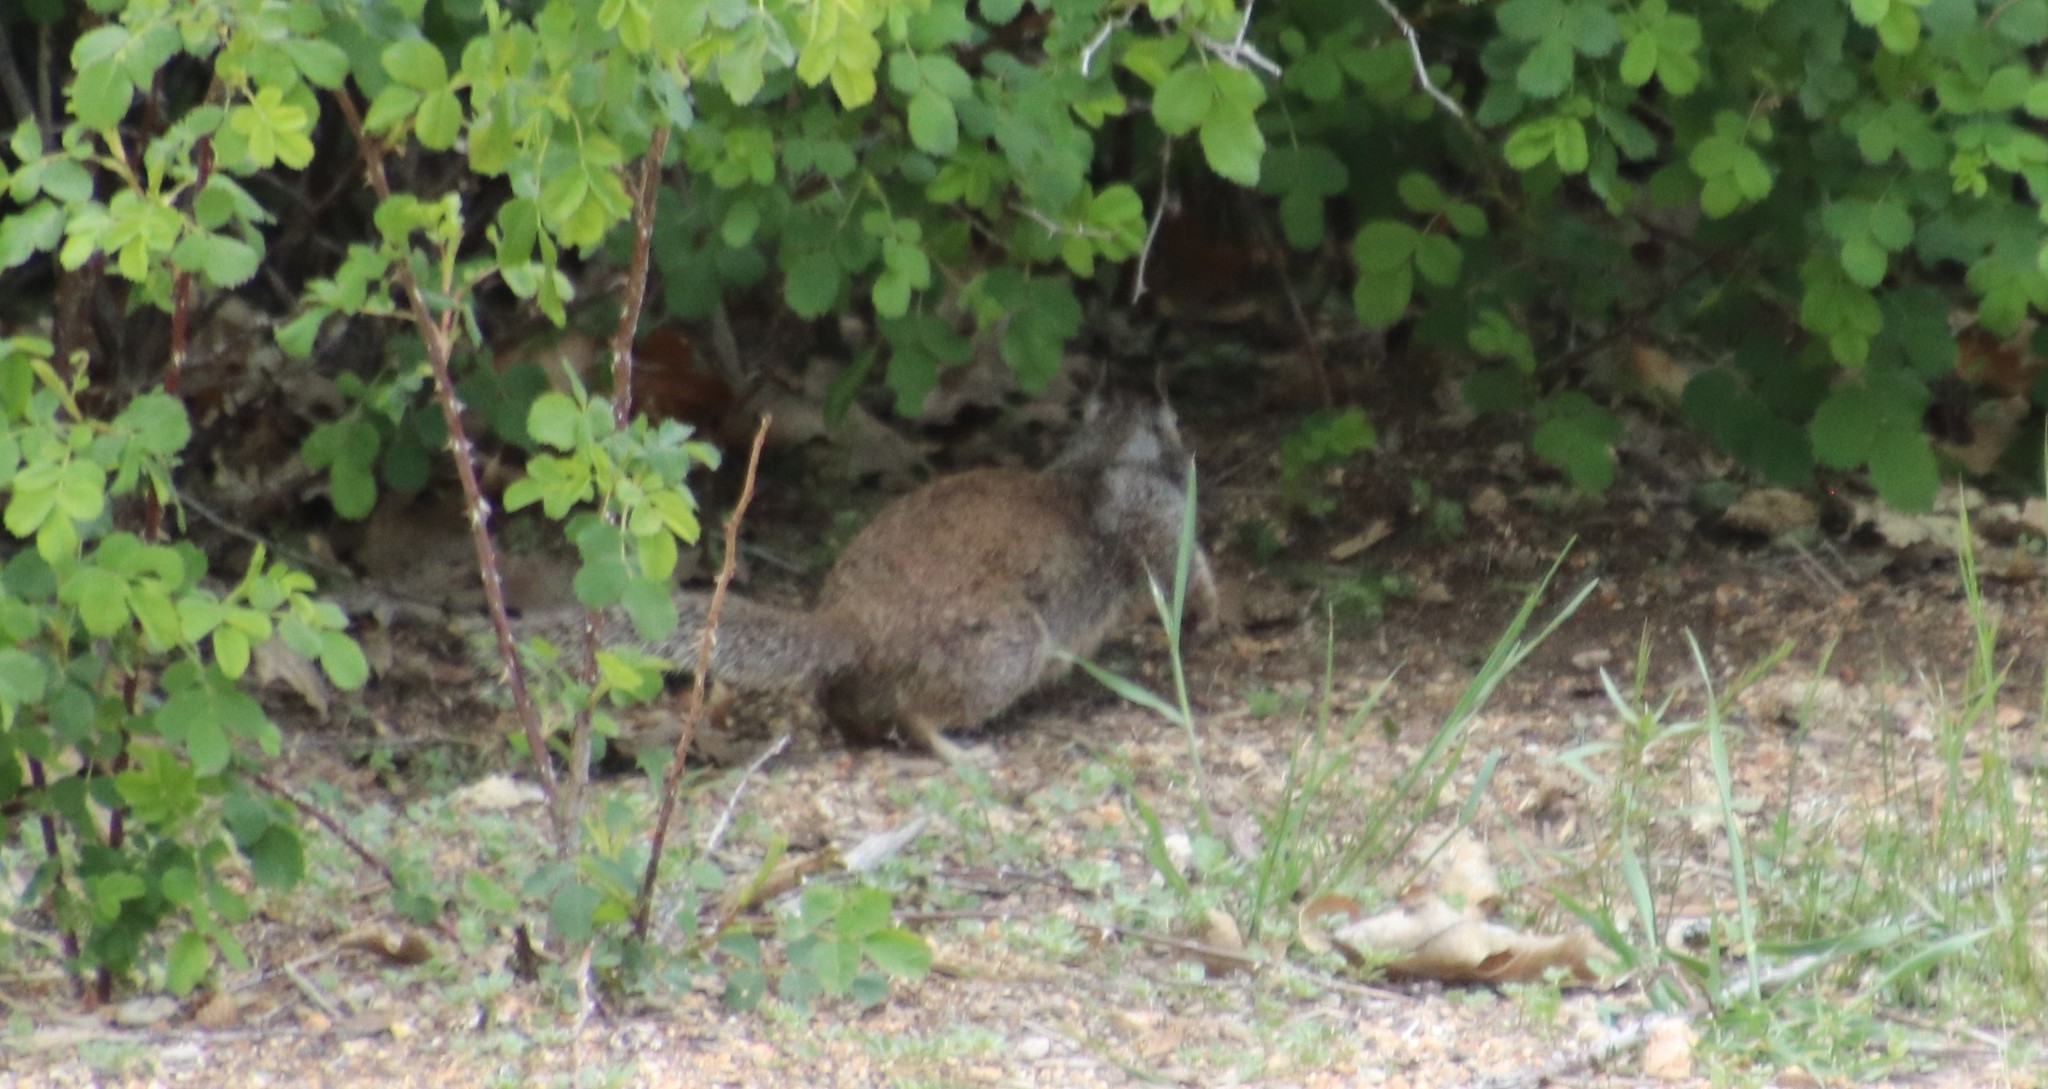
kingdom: Animalia
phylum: Chordata
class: Mammalia
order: Rodentia
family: Sciuridae
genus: Otospermophilus
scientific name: Otospermophilus beecheyi
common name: California ground squirrel
